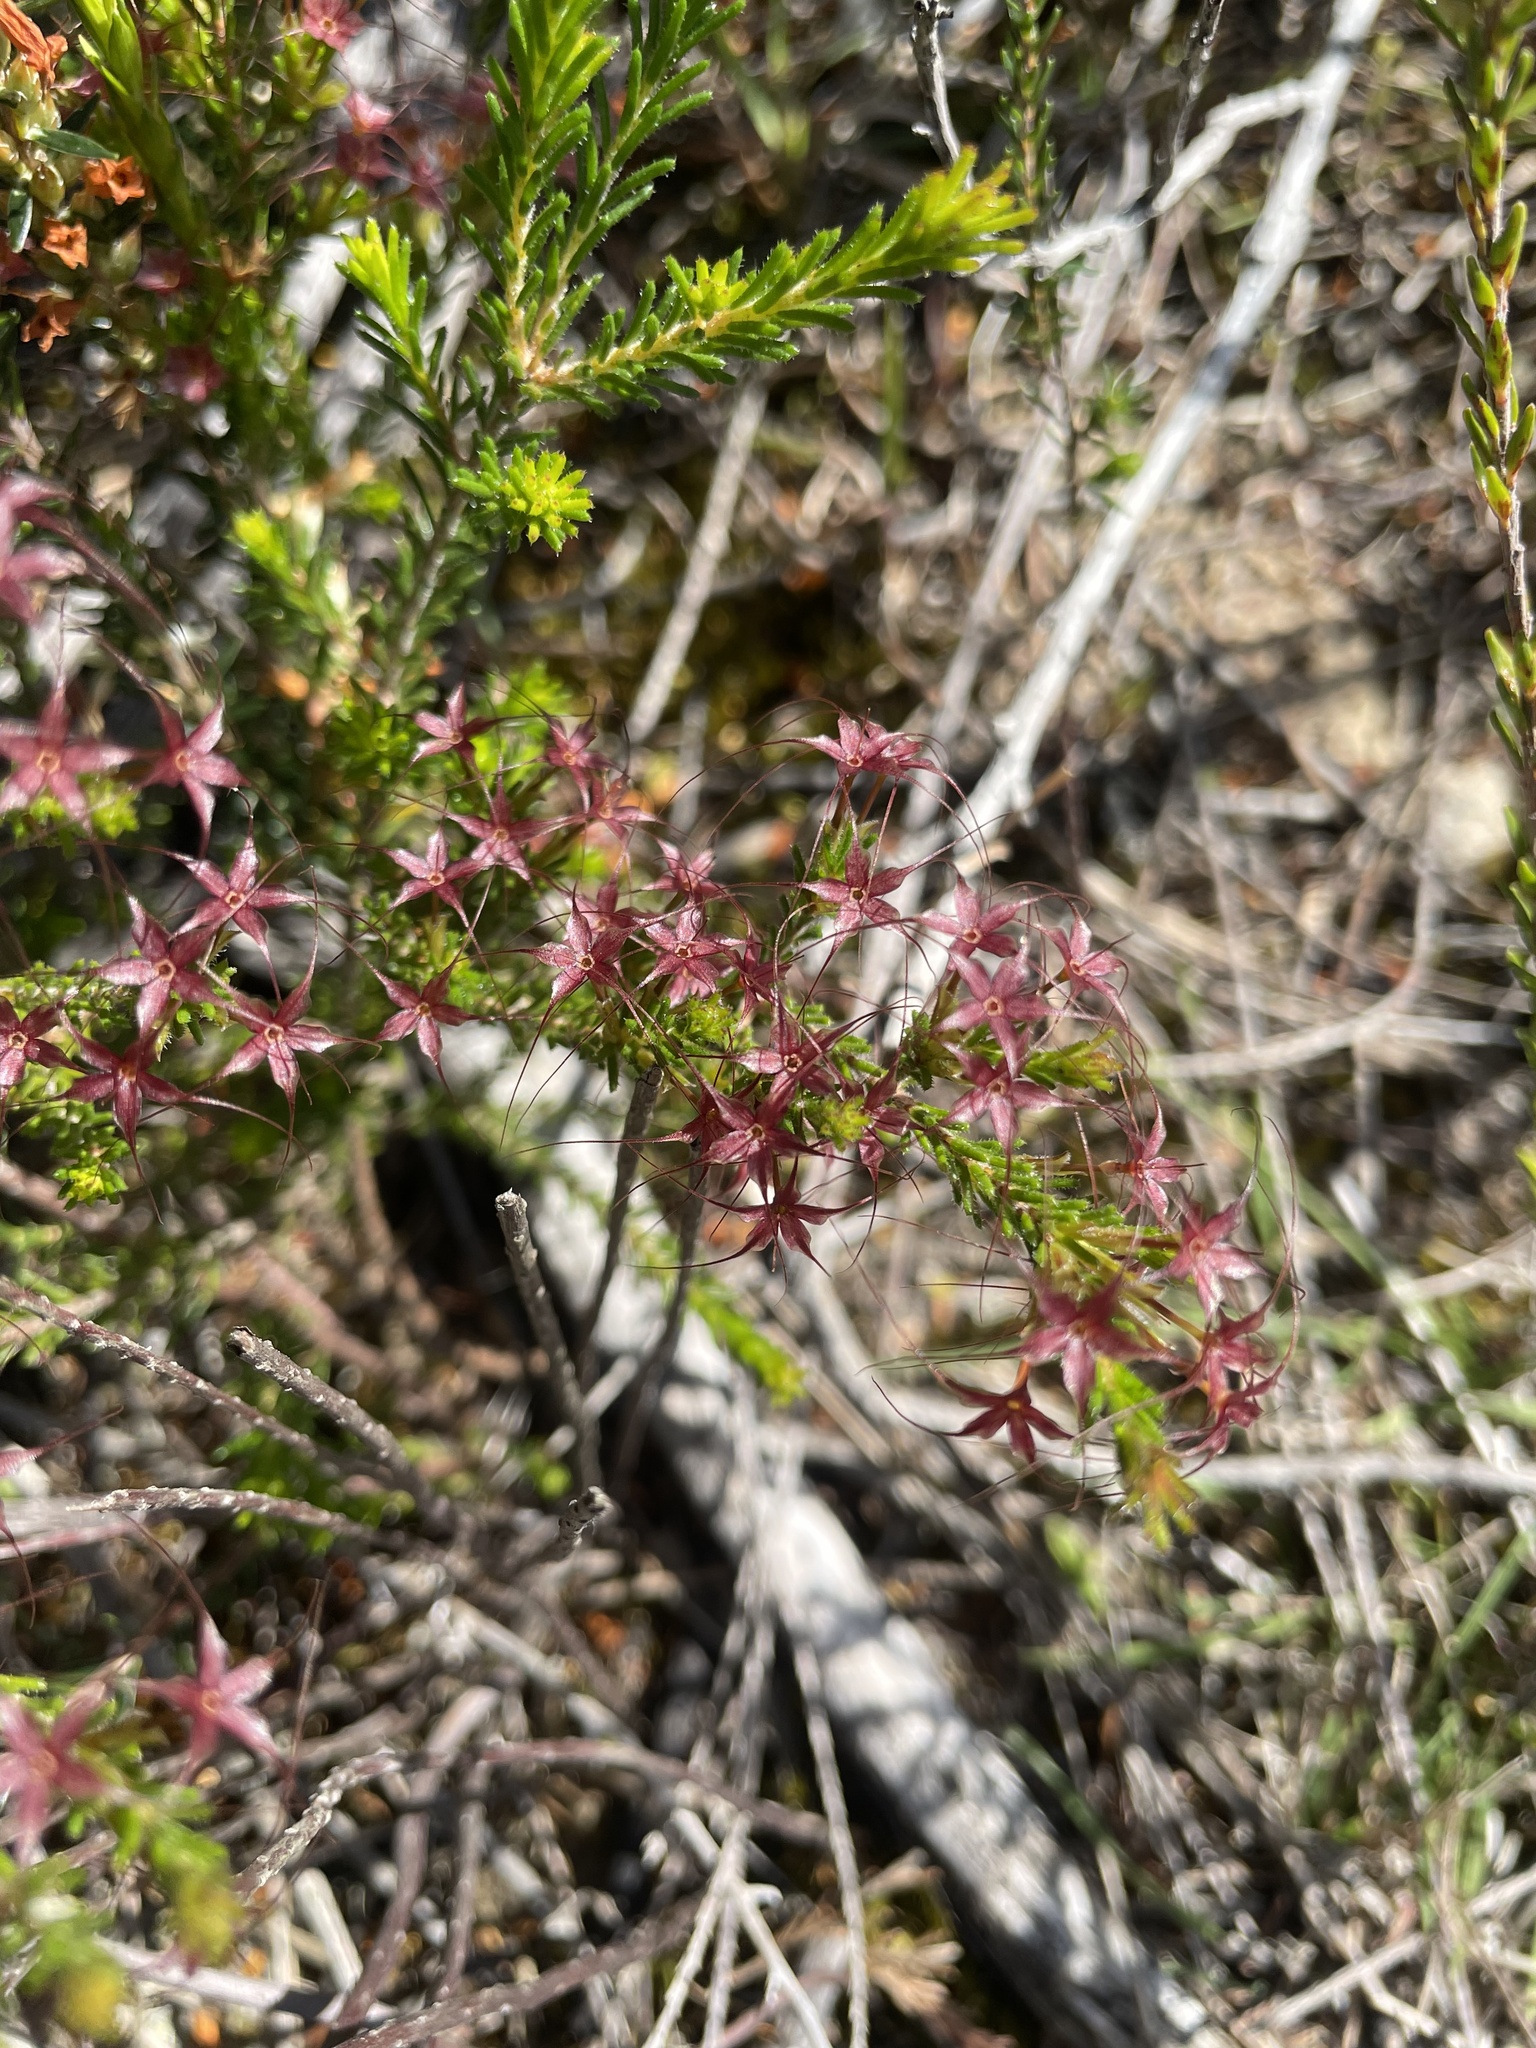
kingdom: Plantae
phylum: Tracheophyta
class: Magnoliopsida
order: Myrtales
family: Myrtaceae
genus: Calytrix
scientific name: Calytrix tetragona
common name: Common fringe myrtle
